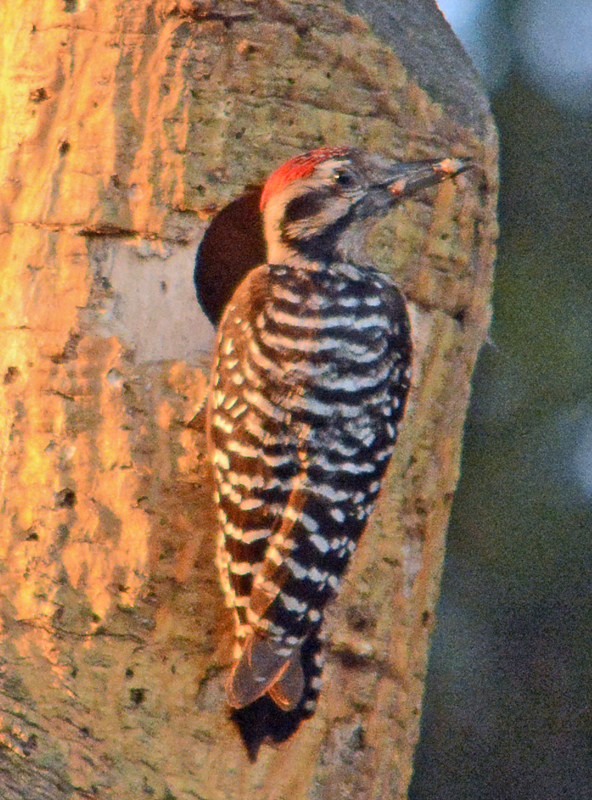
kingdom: Animalia
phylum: Chordata
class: Aves
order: Piciformes
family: Picidae
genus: Dryobates
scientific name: Dryobates scalaris
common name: Ladder-backed woodpecker
